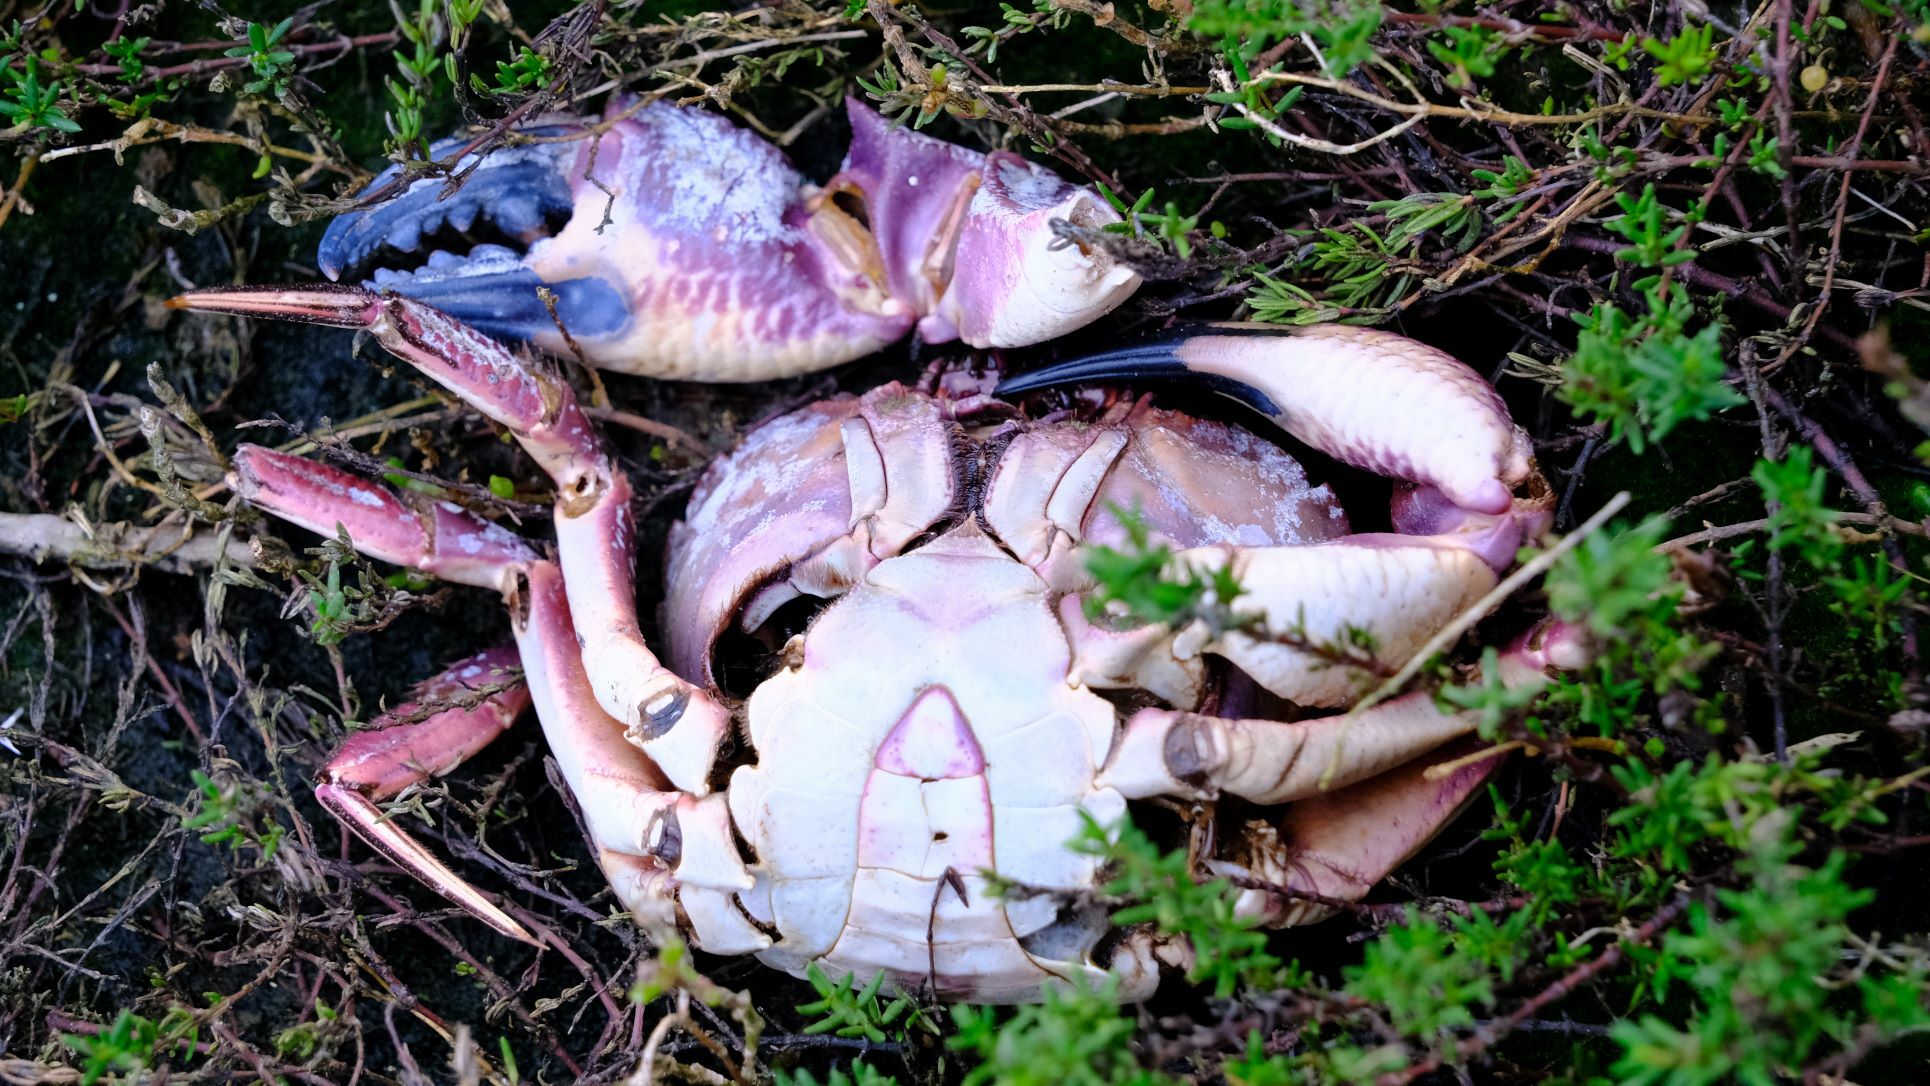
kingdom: Animalia
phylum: Arthropoda
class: Malacostraca
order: Decapoda
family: Geryonidae
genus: Nectocarcinus
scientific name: Nectocarcinus integrifrons
